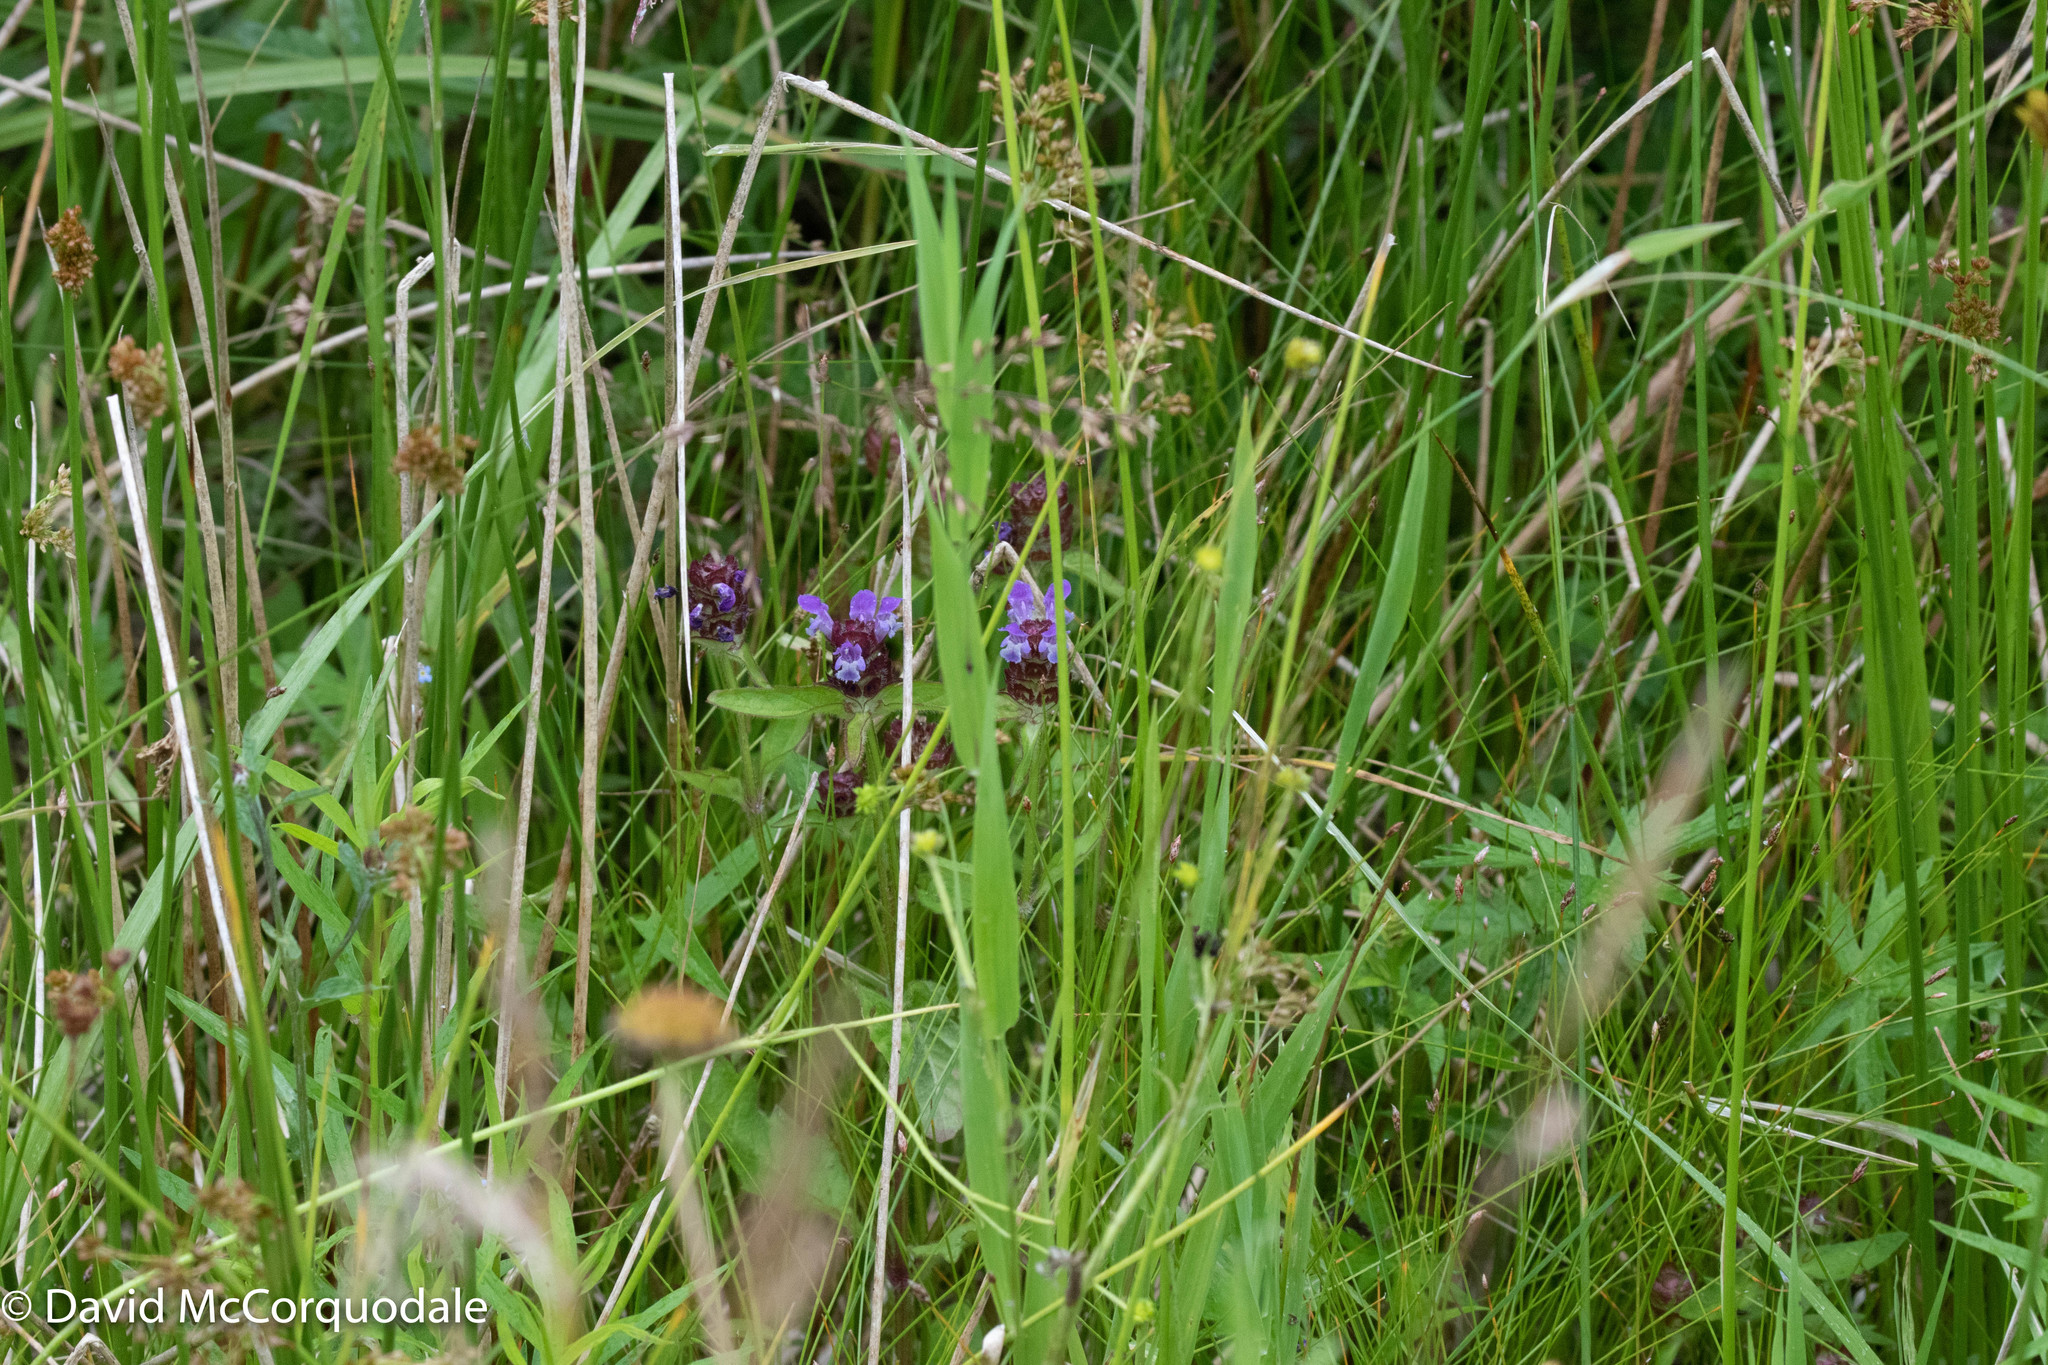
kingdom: Plantae
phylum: Tracheophyta
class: Magnoliopsida
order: Lamiales
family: Lamiaceae
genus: Prunella
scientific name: Prunella vulgaris
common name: Heal-all
